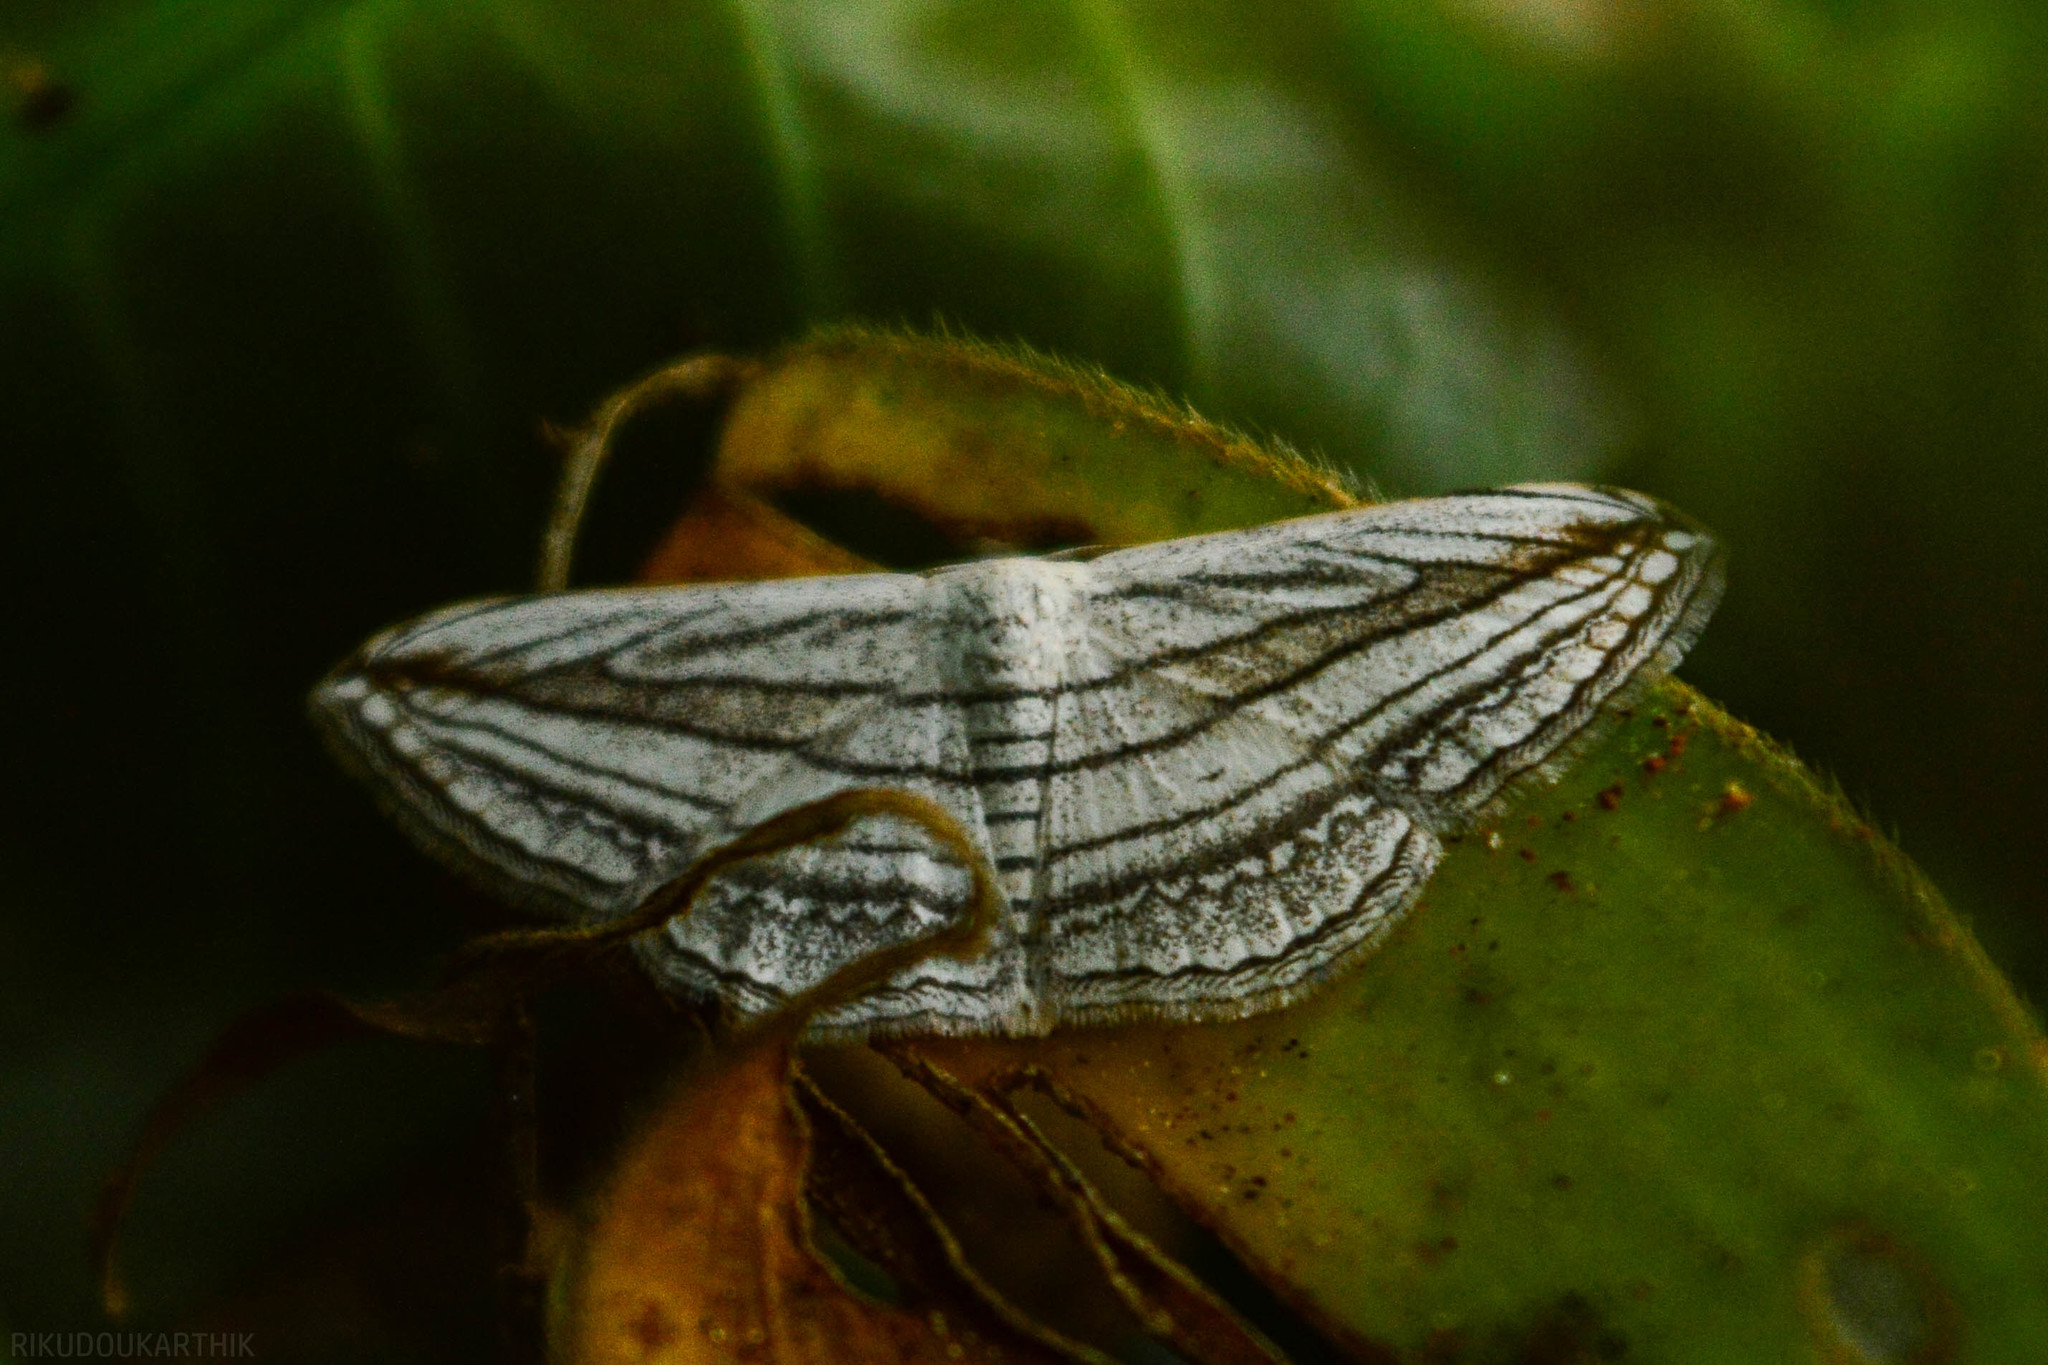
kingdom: Animalia
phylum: Arthropoda
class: Insecta
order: Lepidoptera
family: Geometridae
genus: Scopula
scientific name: Scopula opicata
